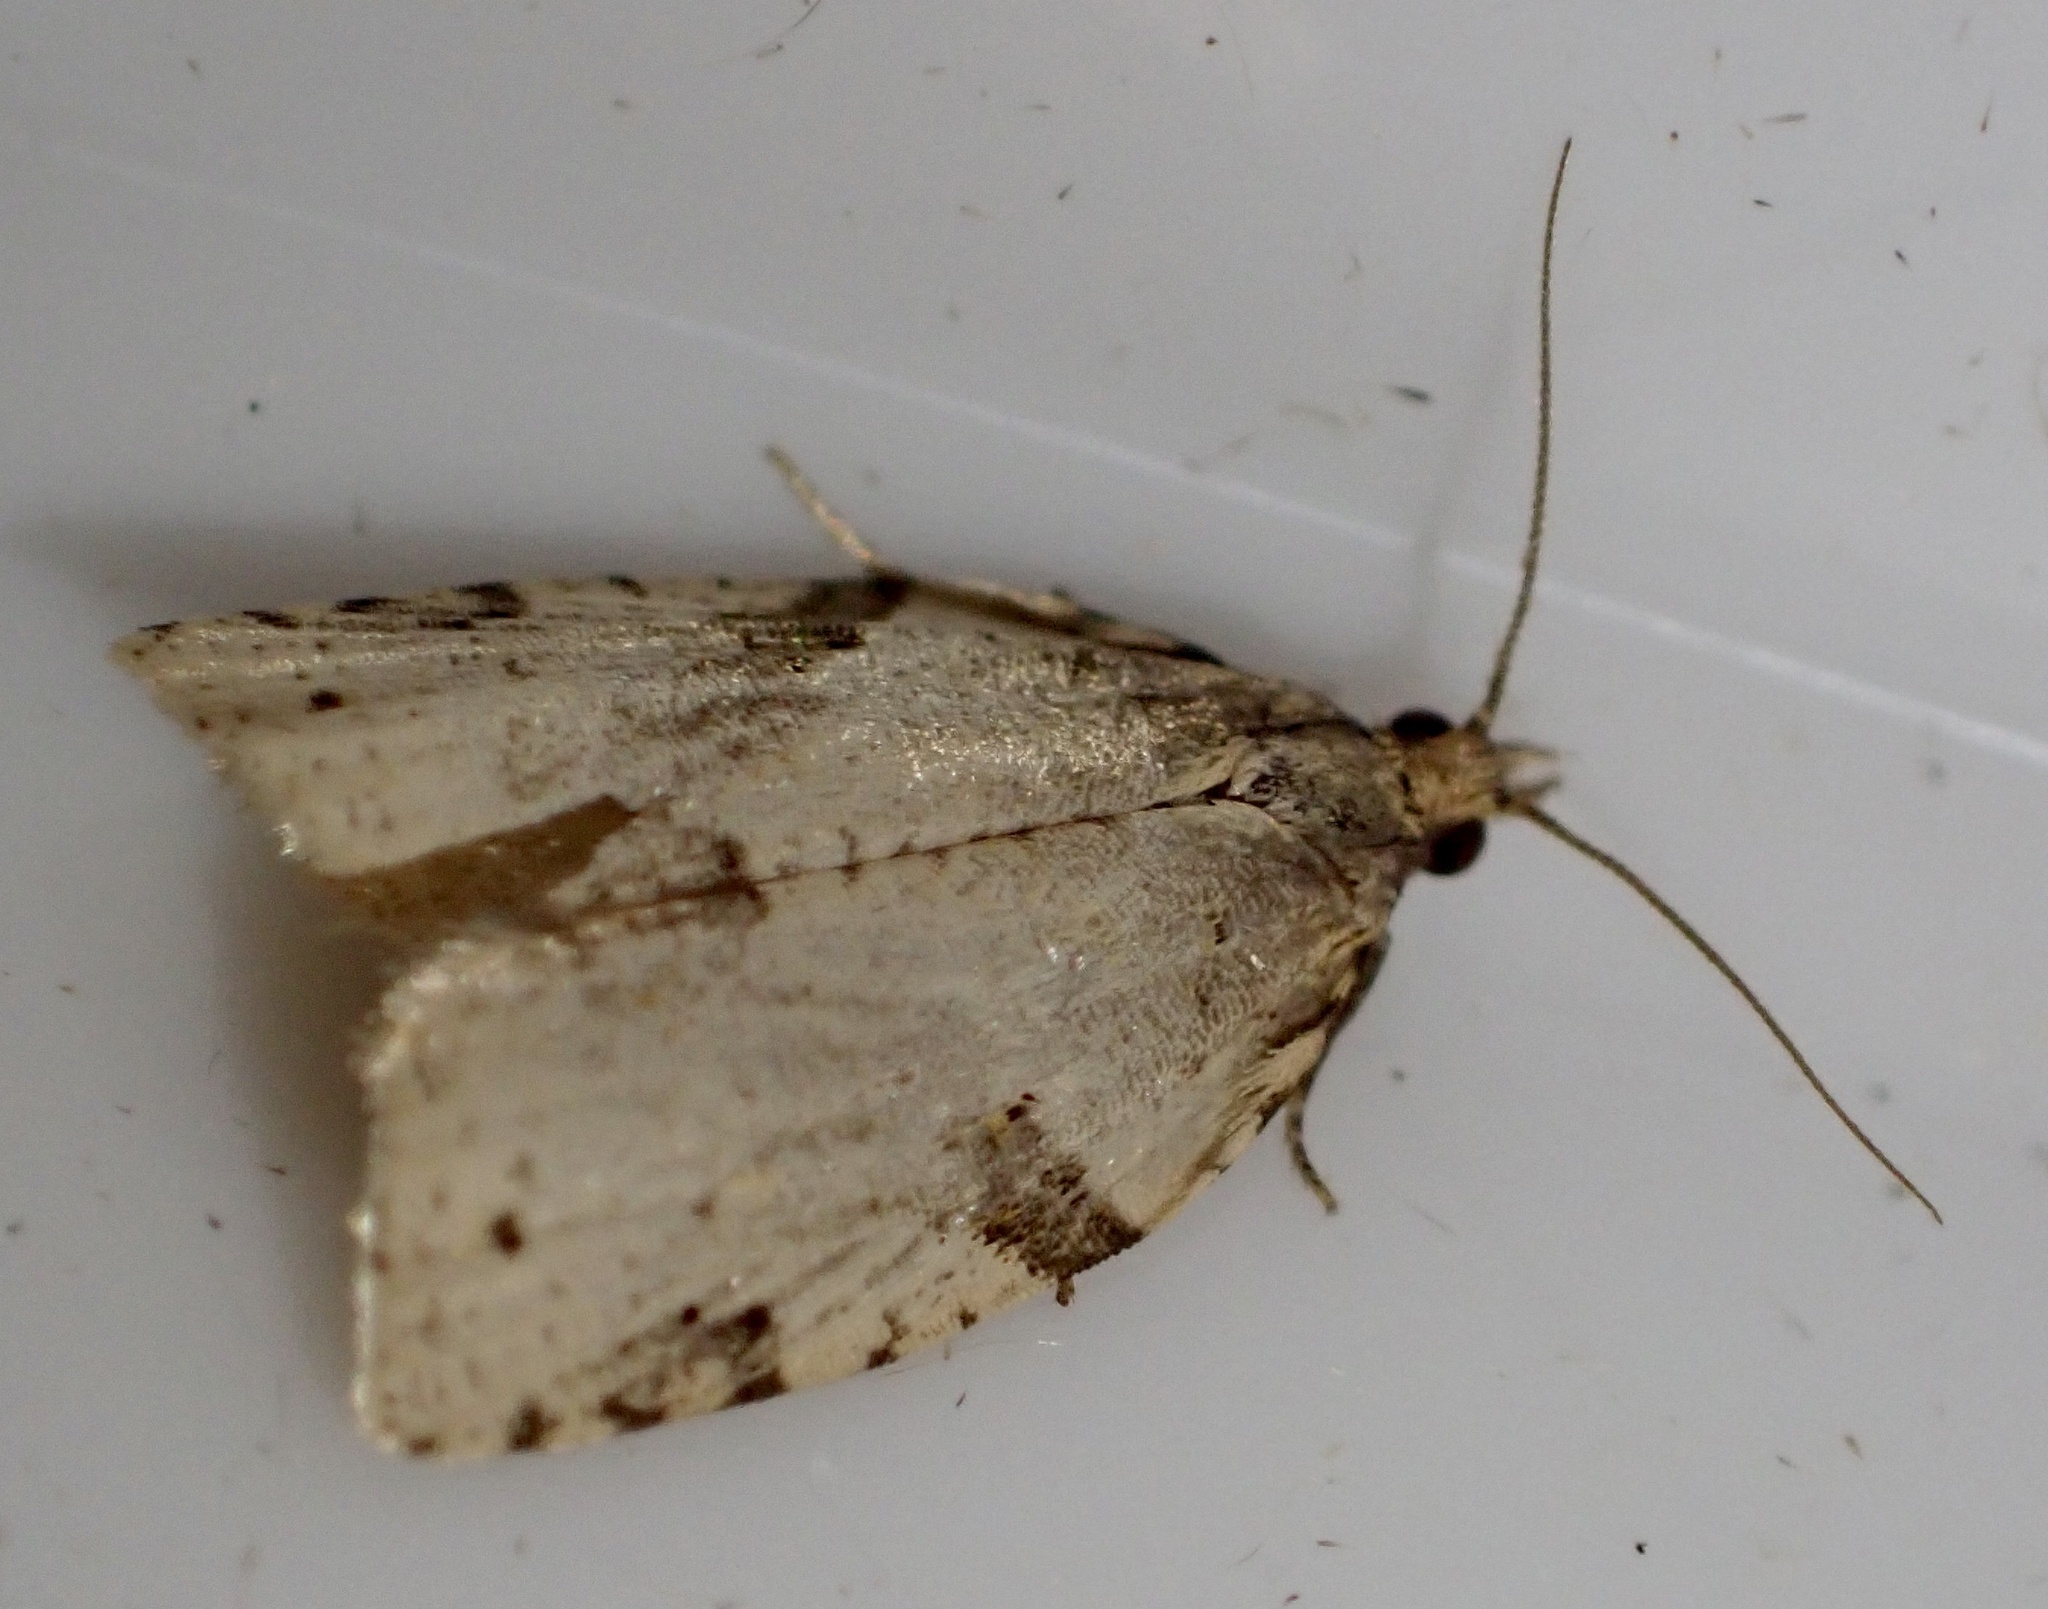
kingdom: Animalia
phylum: Arthropoda
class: Insecta
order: Lepidoptera
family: Tortricidae
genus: Clepsis
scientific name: Clepsis spectrana
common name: Cyclamen tortrix
